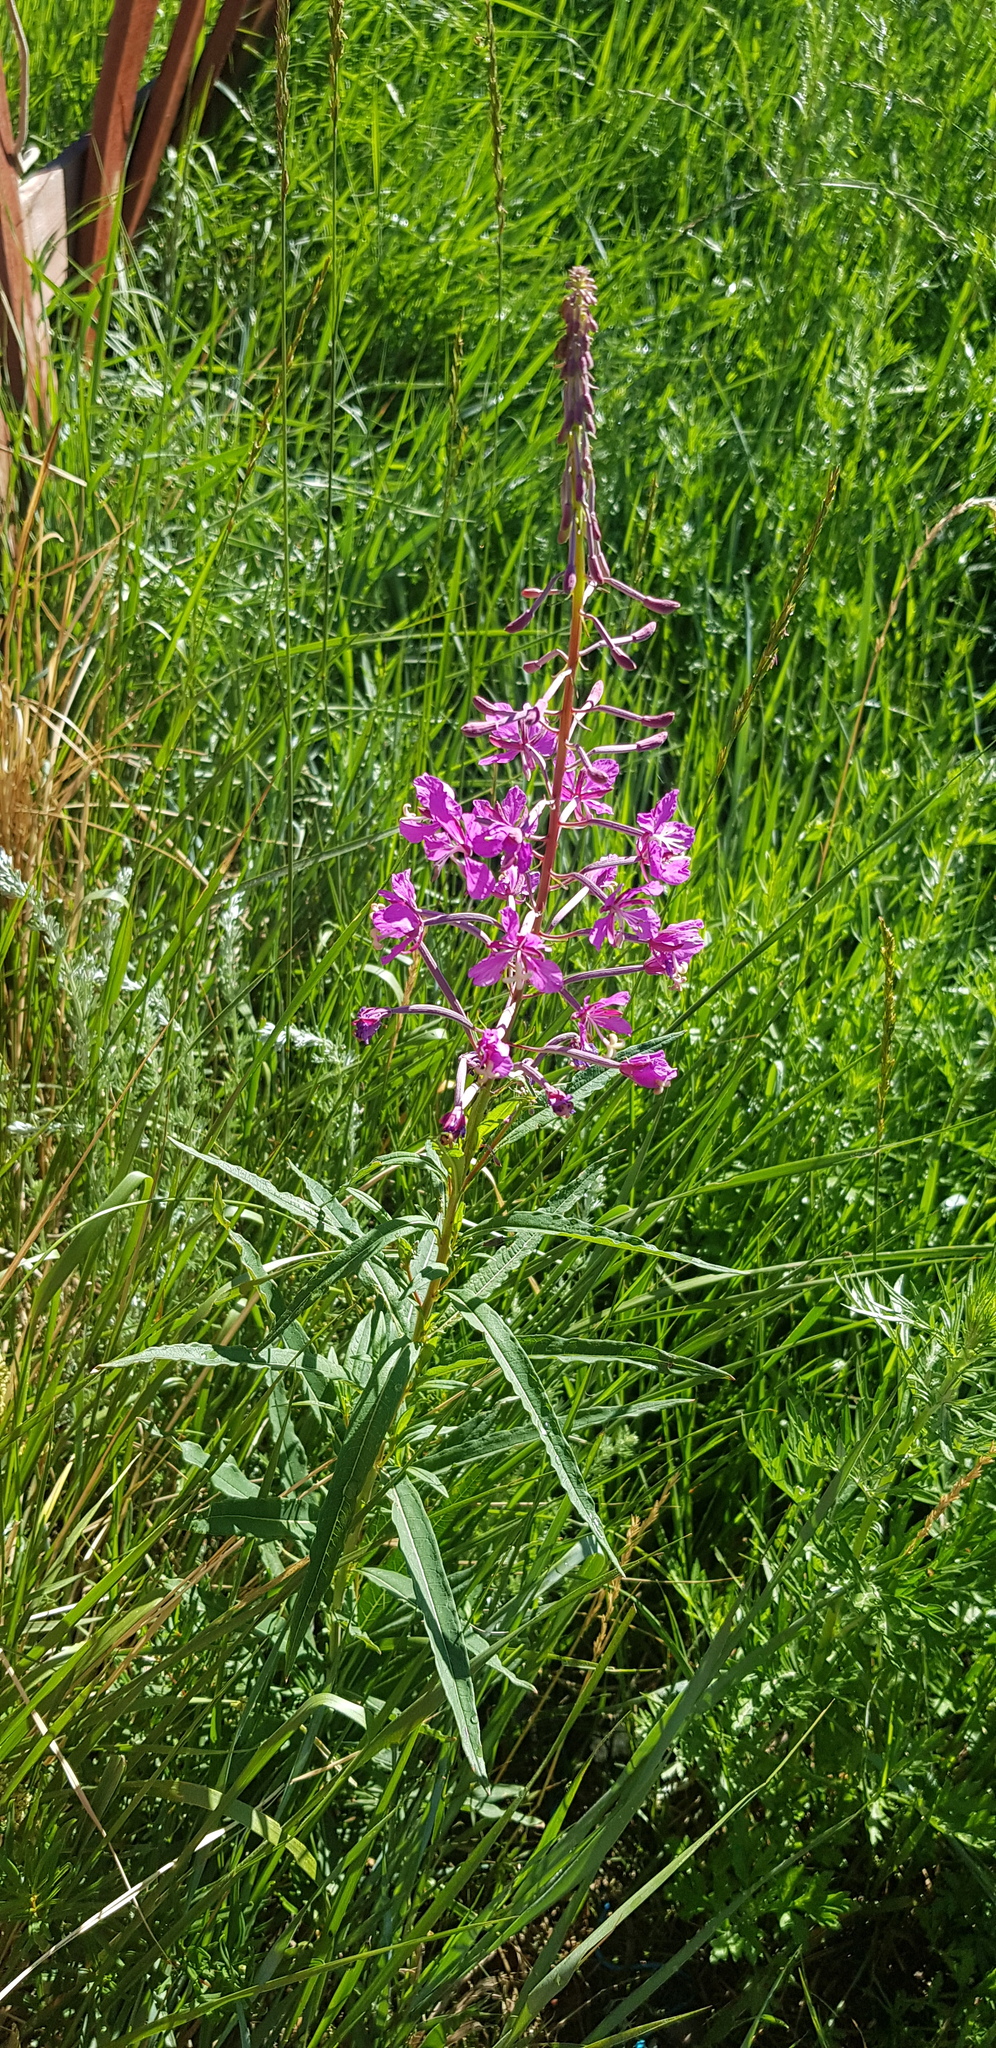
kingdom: Plantae
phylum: Tracheophyta
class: Magnoliopsida
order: Myrtales
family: Onagraceae
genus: Chamaenerion
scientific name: Chamaenerion angustifolium
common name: Fireweed
